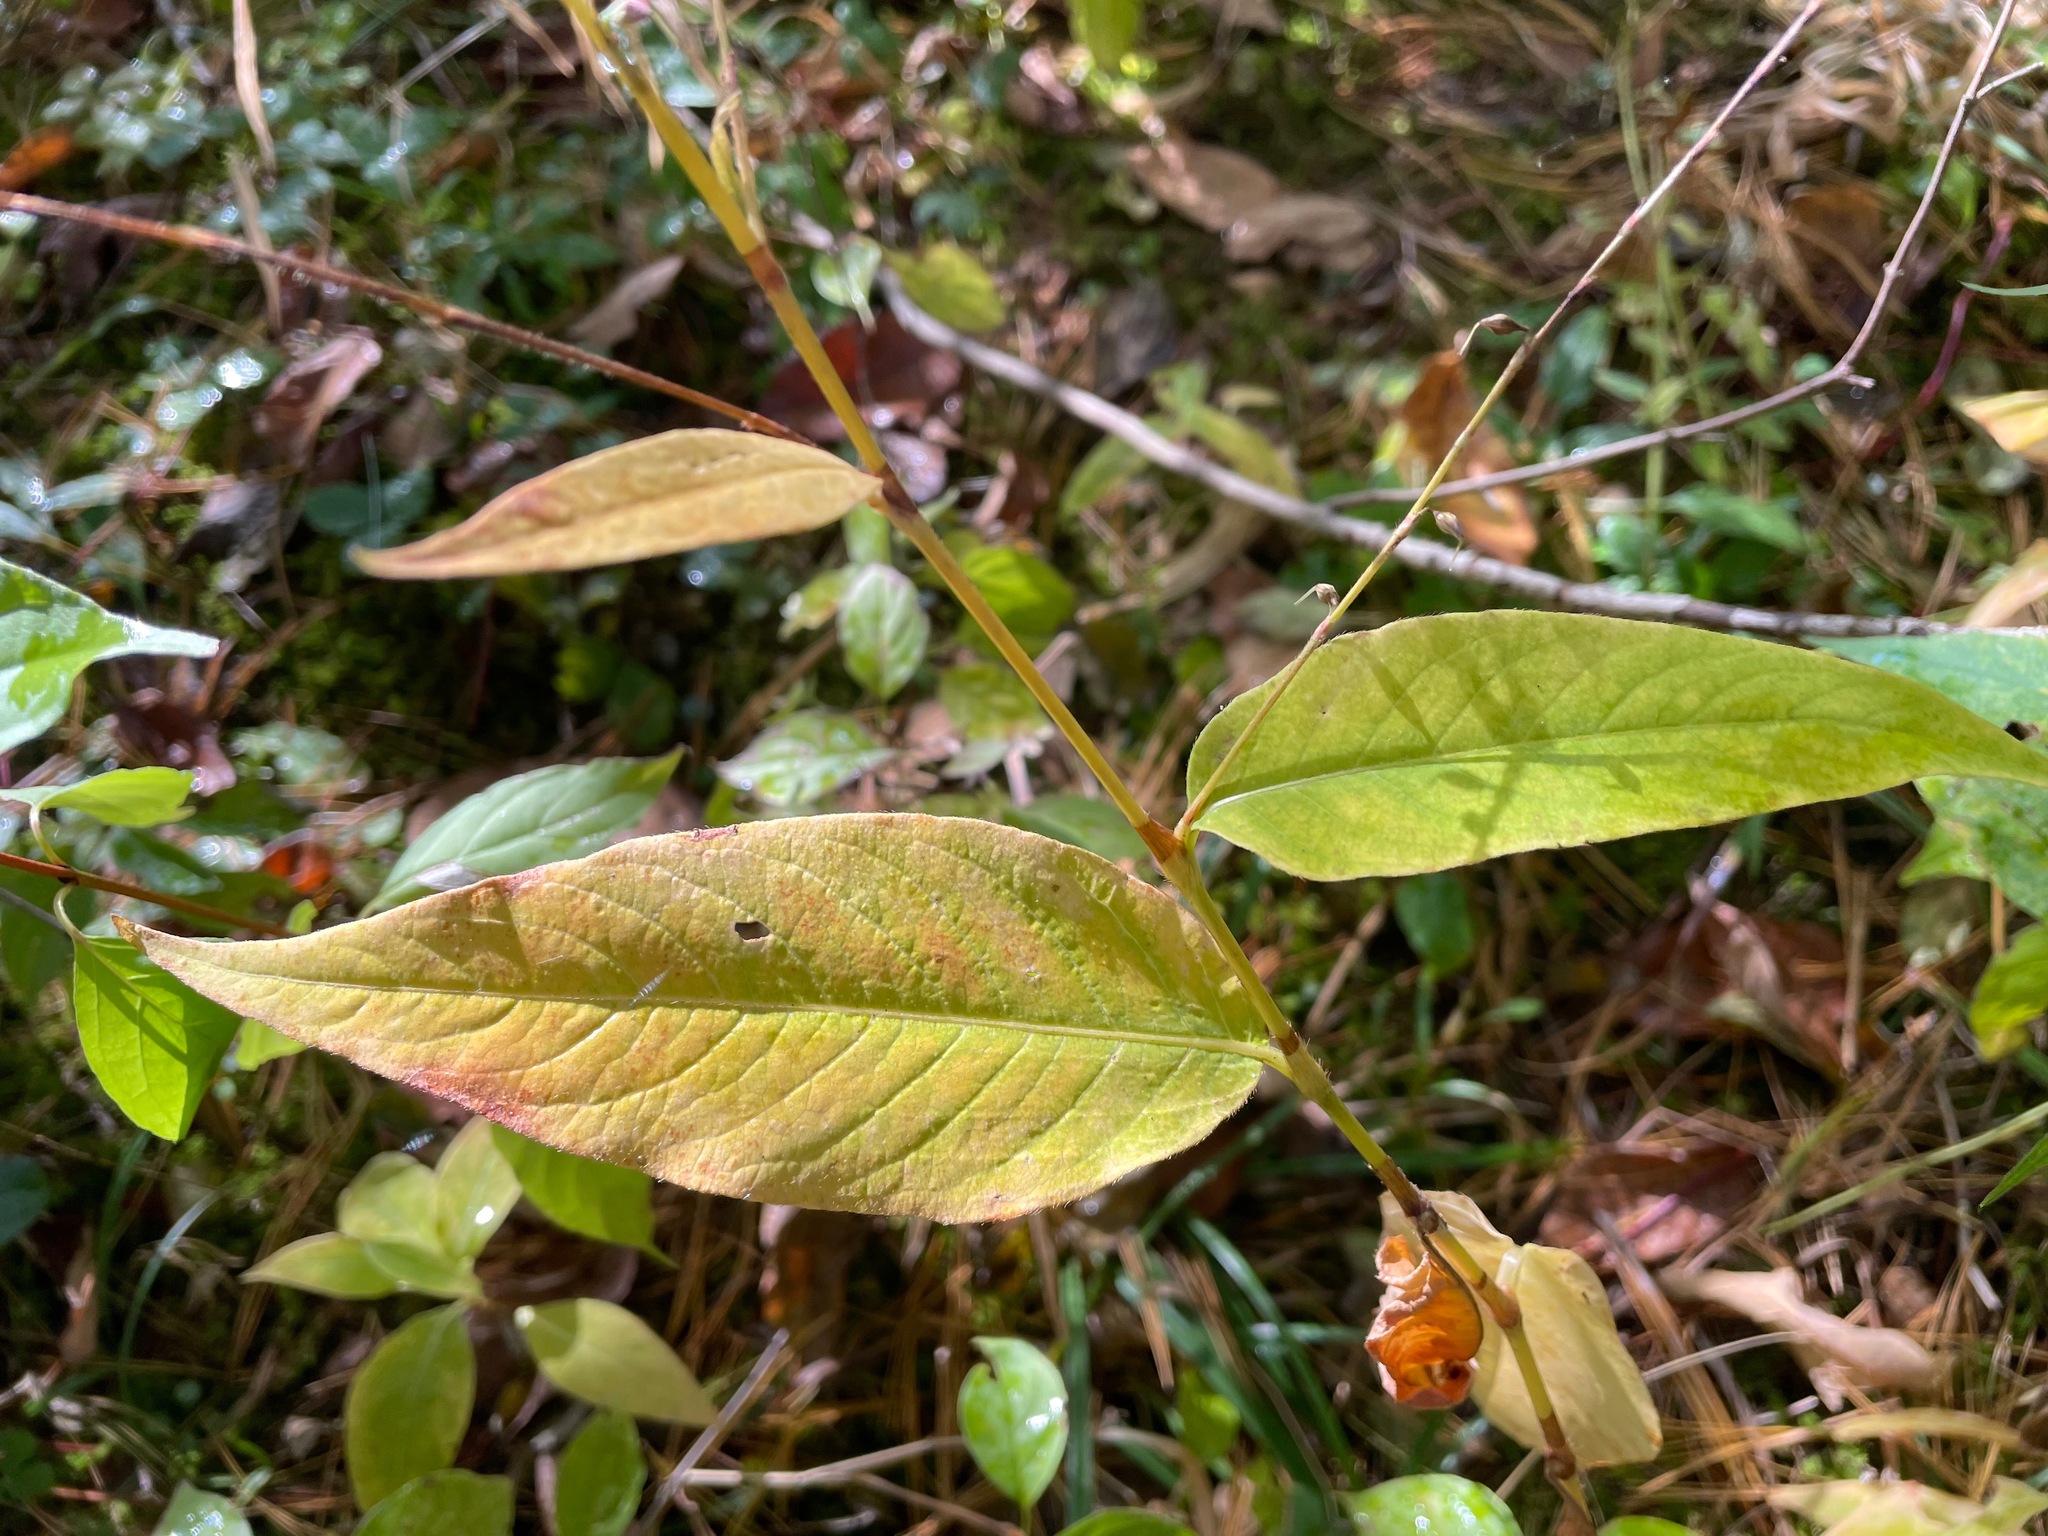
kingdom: Plantae
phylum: Tracheophyta
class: Magnoliopsida
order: Caryophyllales
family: Polygonaceae
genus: Persicaria
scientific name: Persicaria virginiana
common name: Jumpseed
